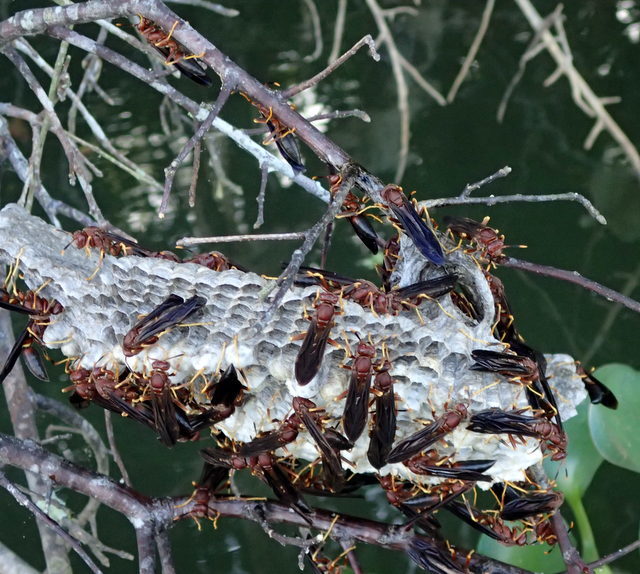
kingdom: Animalia
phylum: Arthropoda
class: Insecta
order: Hymenoptera
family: Eumenidae
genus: Polistes
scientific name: Polistes annularis
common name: Ringed paper wasp
